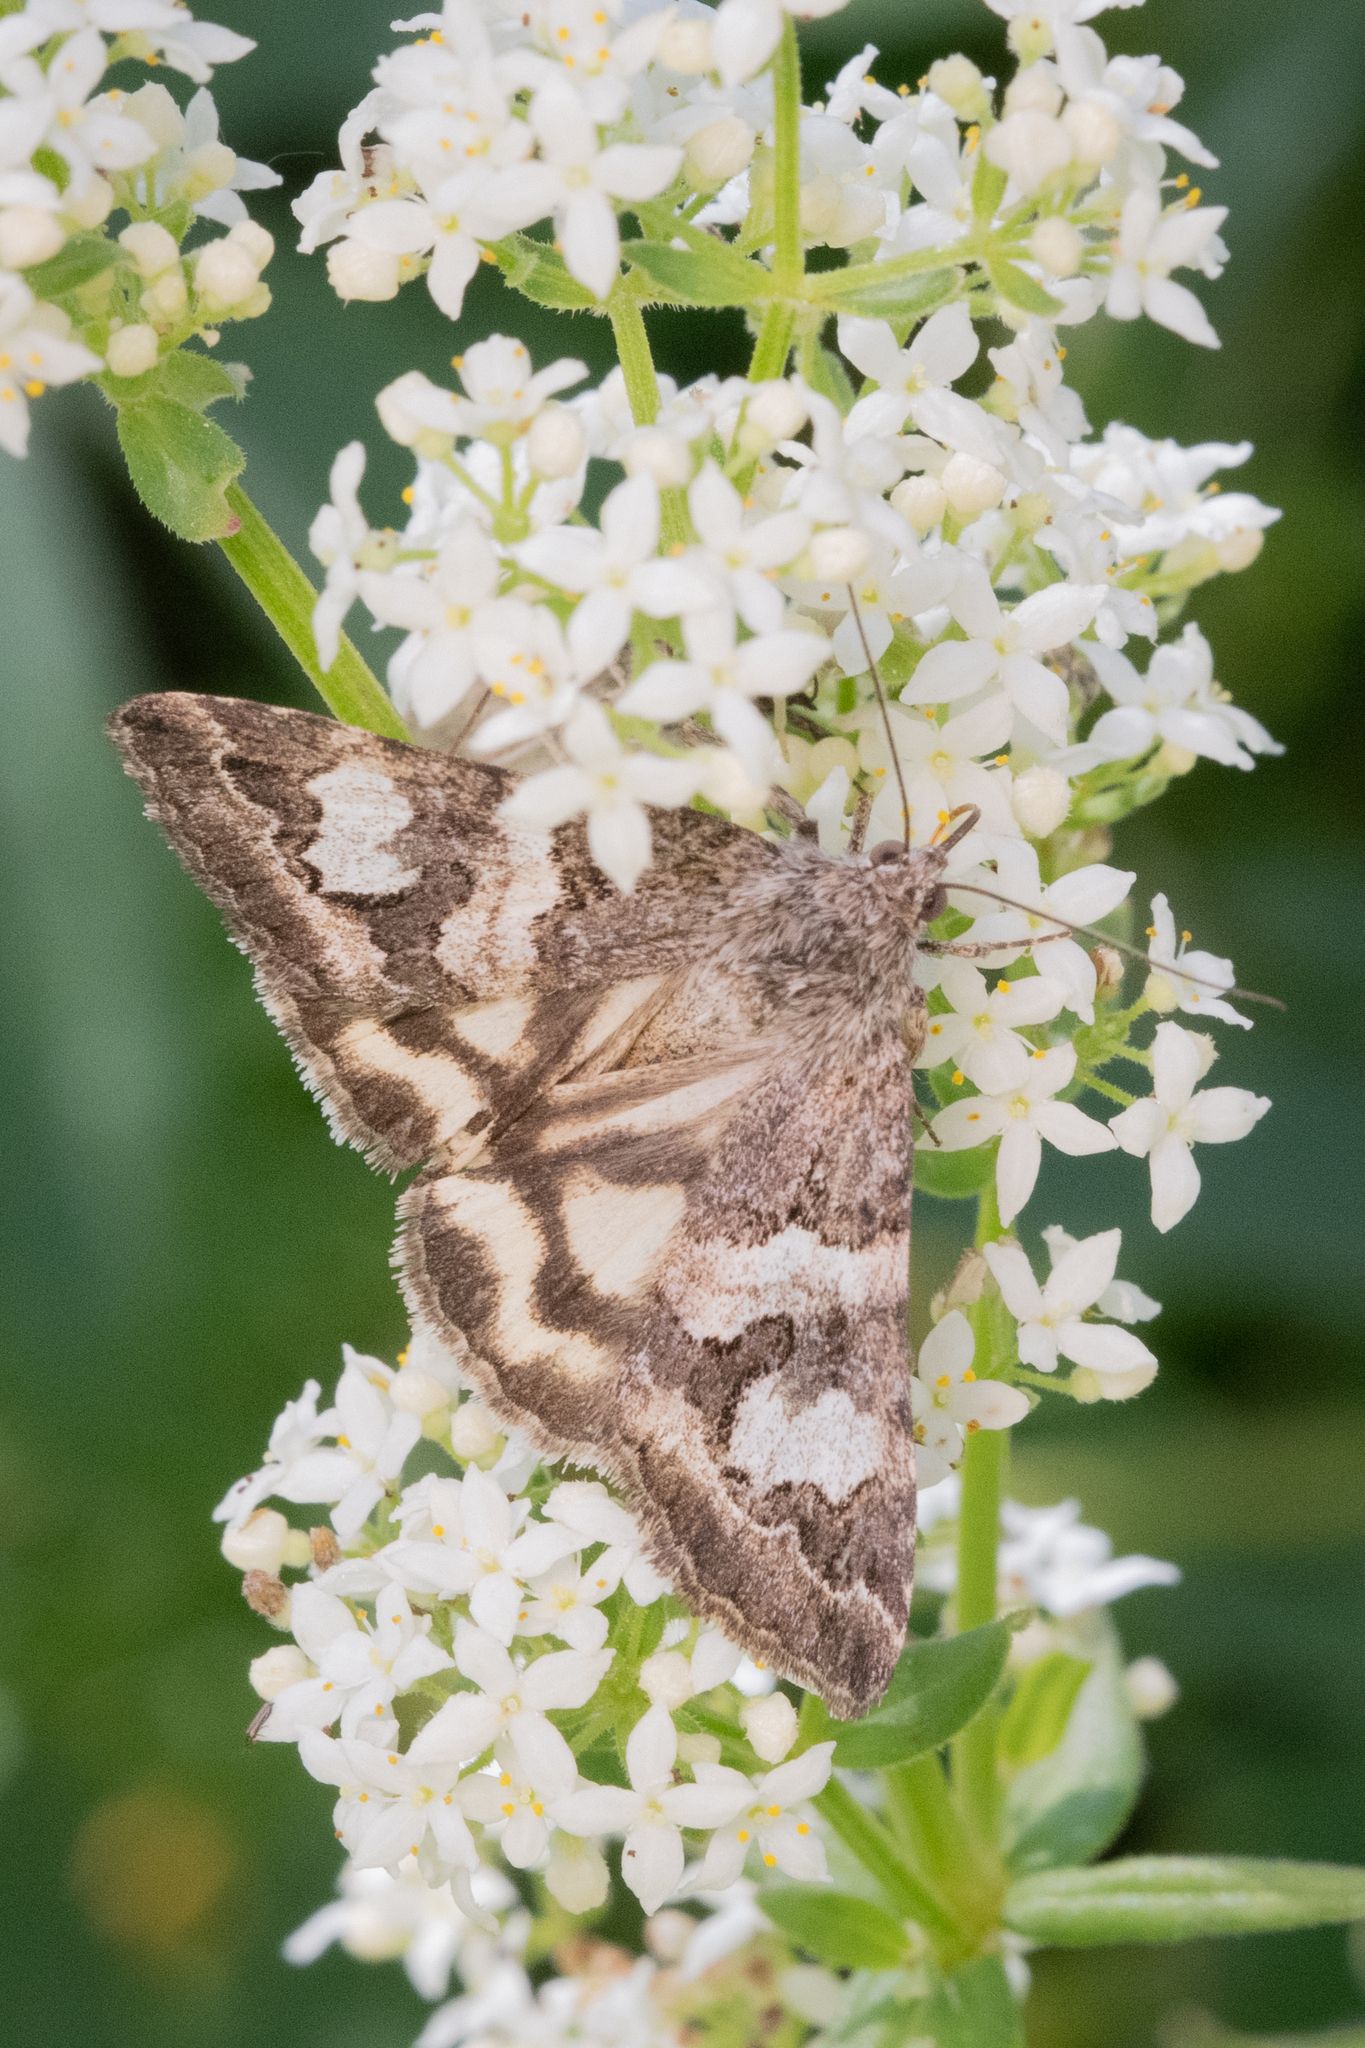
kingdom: Animalia
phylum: Arthropoda
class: Insecta
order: Lepidoptera
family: Erebidae
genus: Drasteria
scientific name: Drasteria hudsonica
